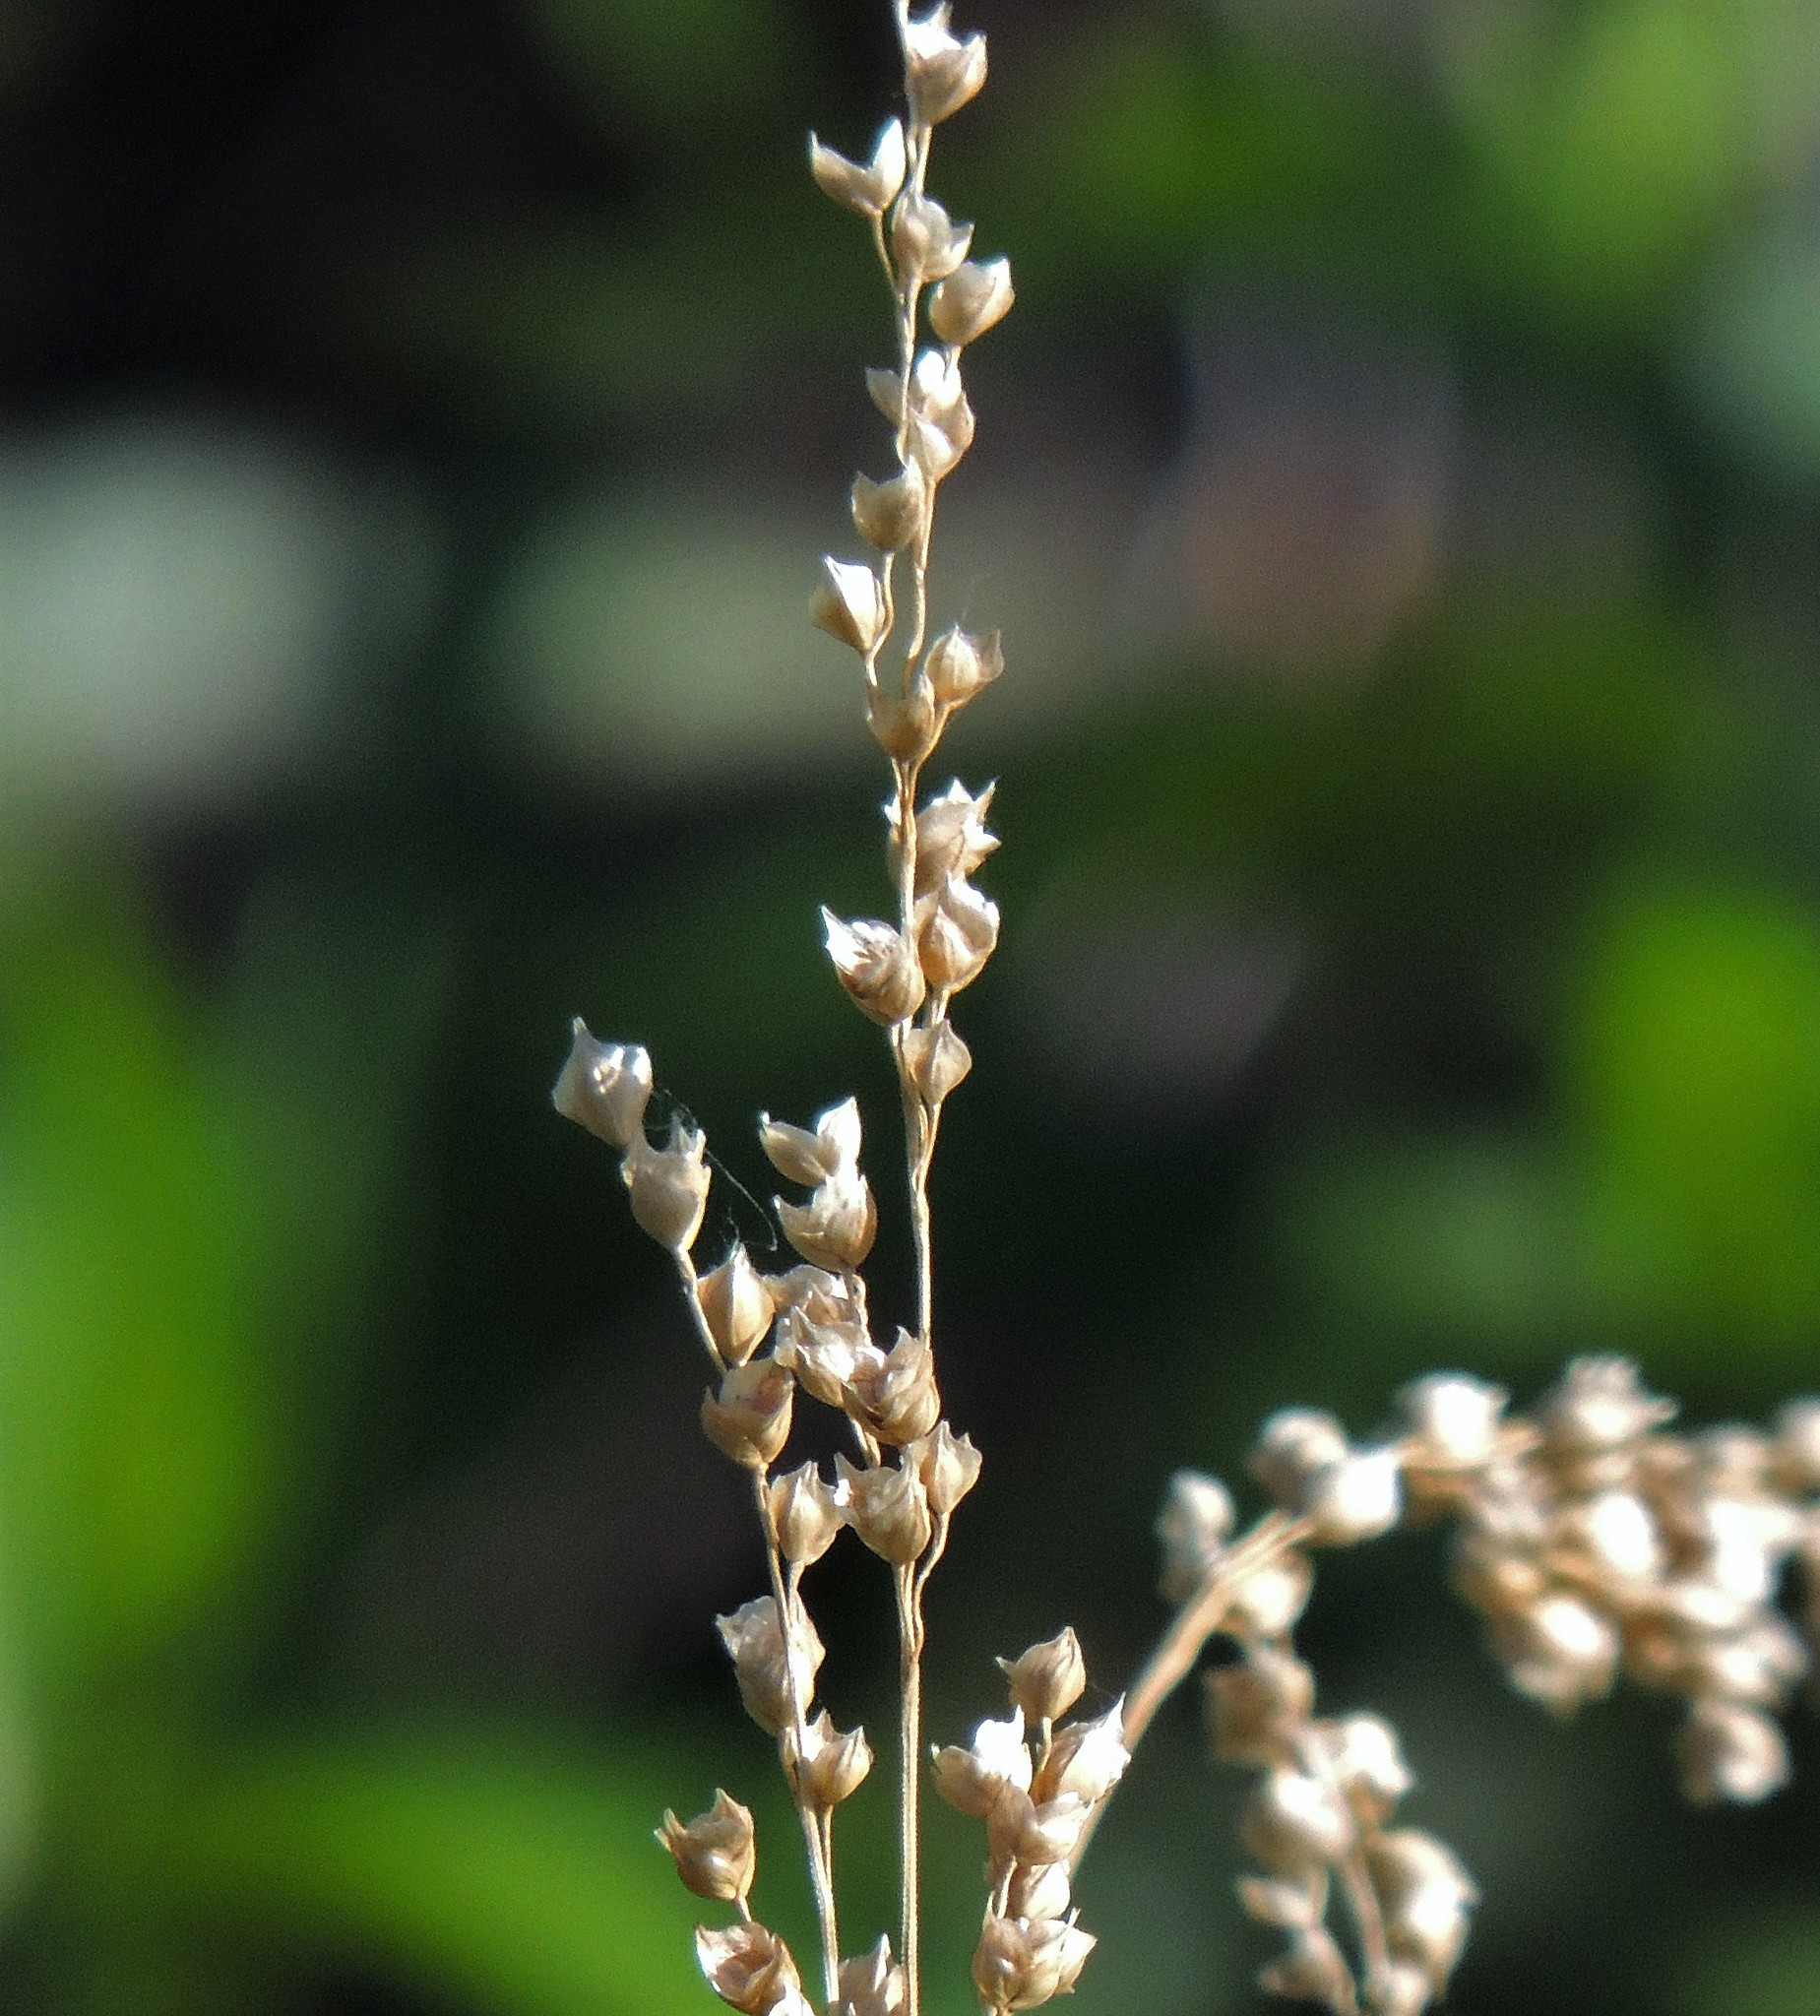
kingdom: Plantae
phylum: Tracheophyta
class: Liliopsida
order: Poales
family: Poaceae
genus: Chascolytrum
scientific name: Chascolytrum subaristatum
